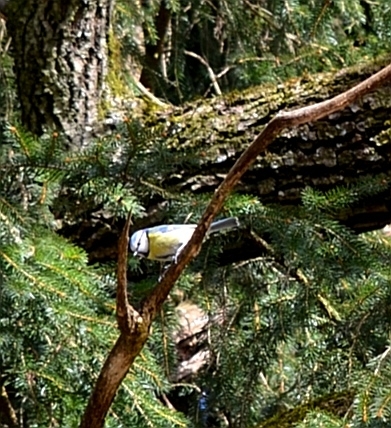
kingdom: Animalia
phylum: Chordata
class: Aves
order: Passeriformes
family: Paridae
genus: Cyanistes
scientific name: Cyanistes caeruleus
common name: Eurasian blue tit
